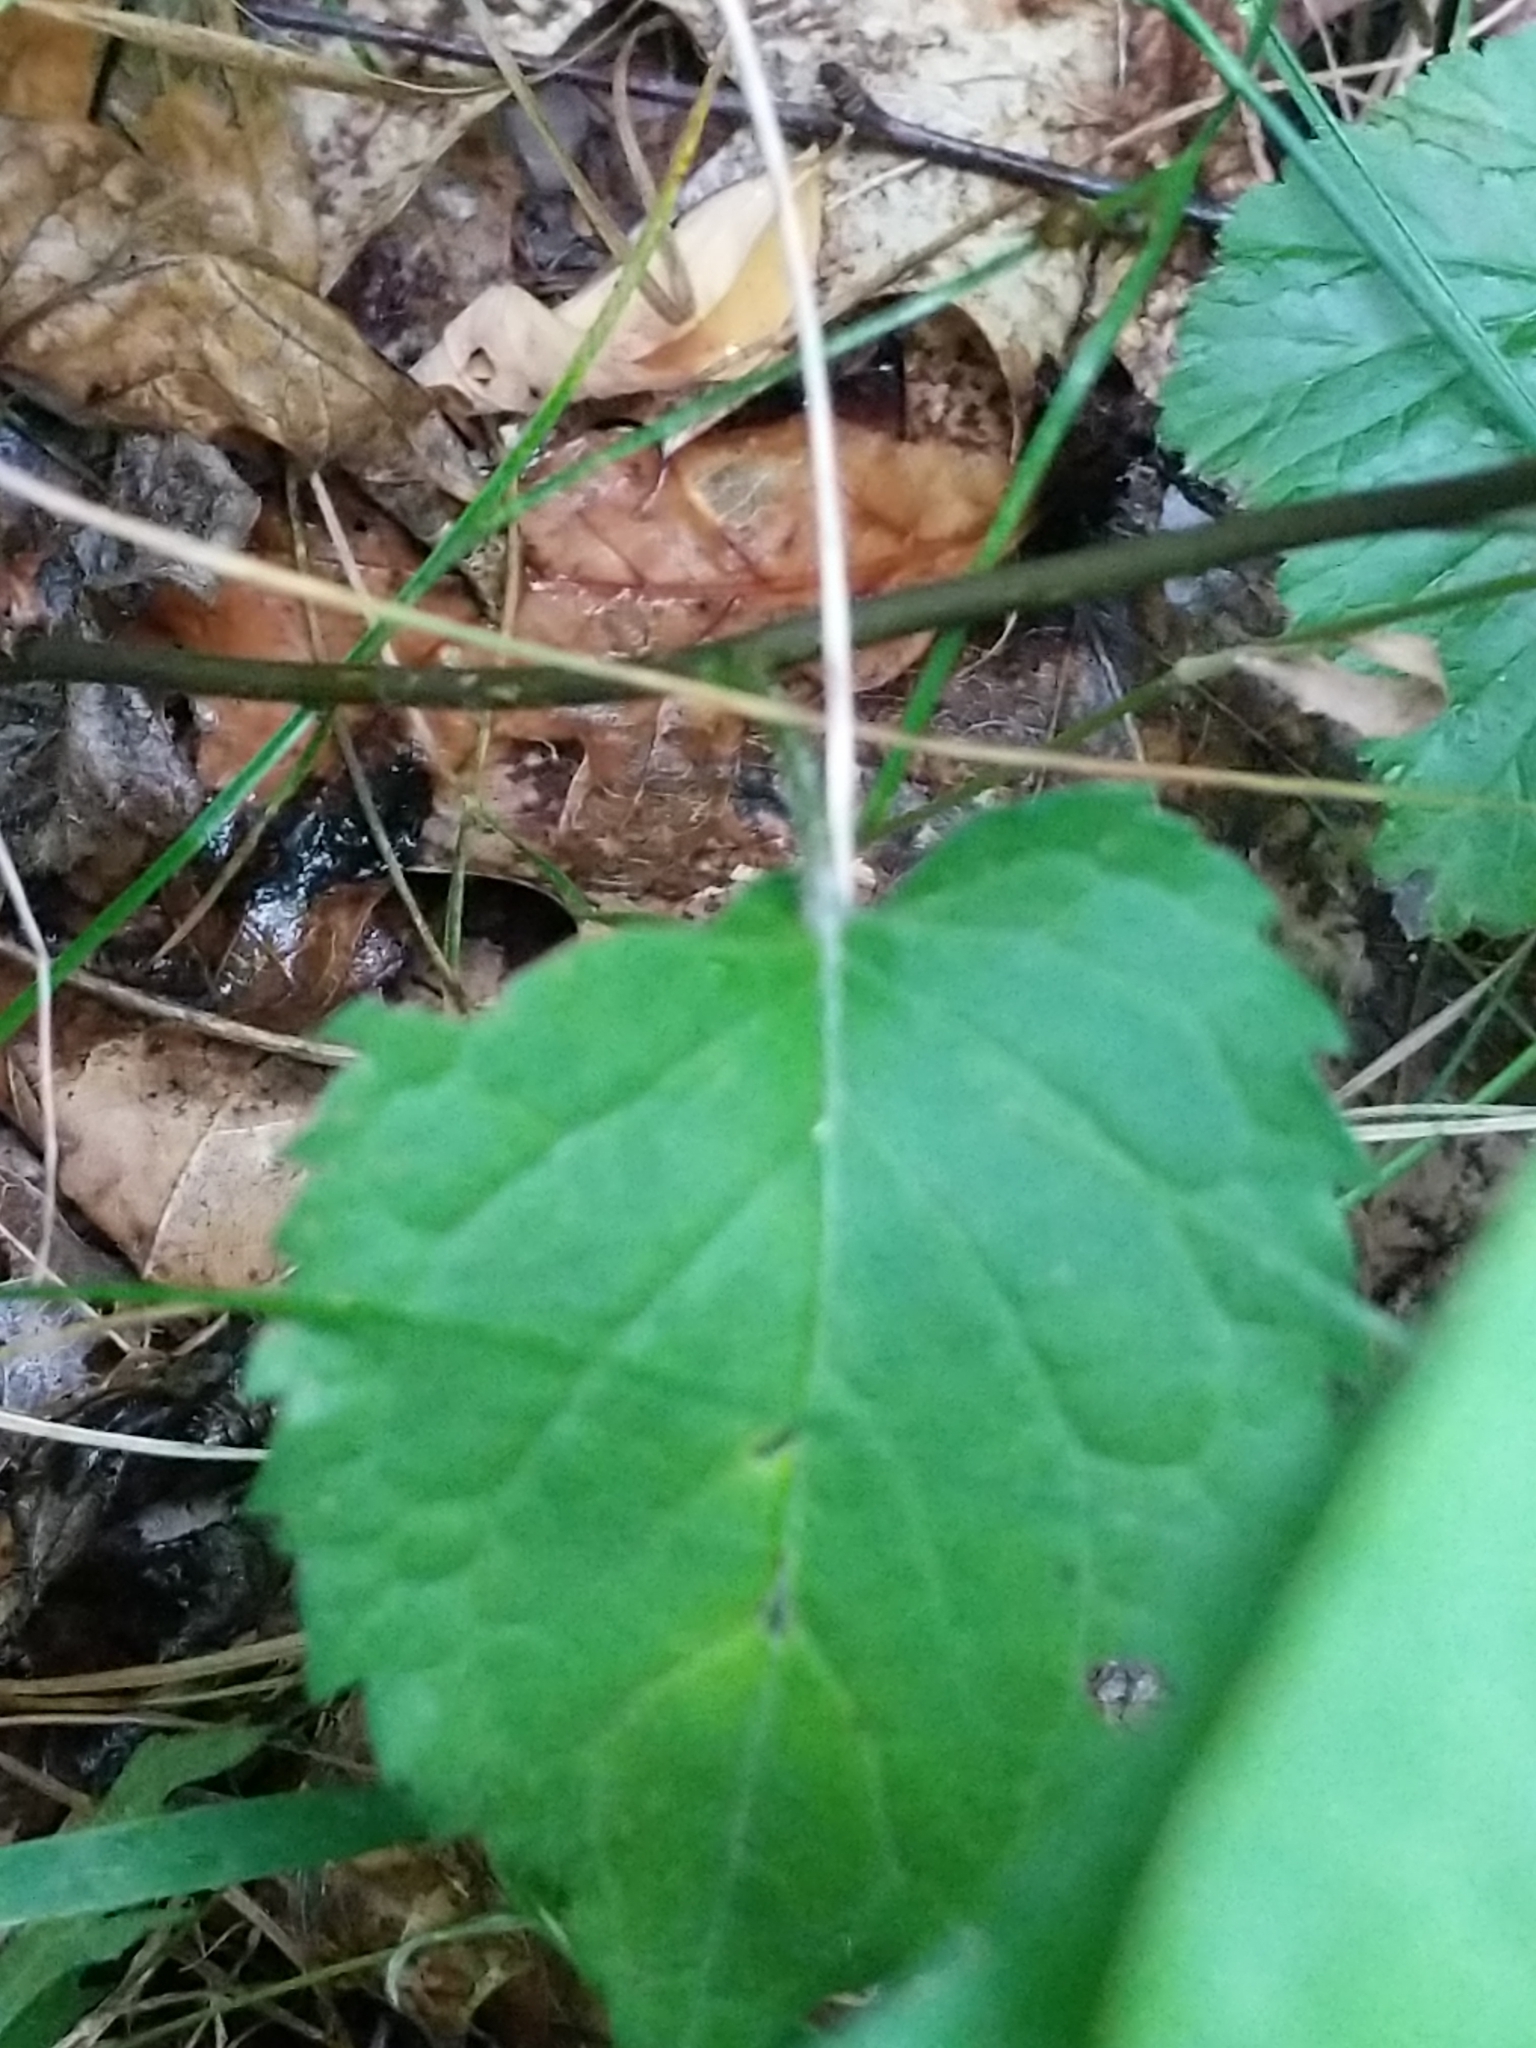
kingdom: Plantae
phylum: Tracheophyta
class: Magnoliopsida
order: Asterales
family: Asteraceae
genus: Eurybia
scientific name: Eurybia divaricata
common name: White wood aster
